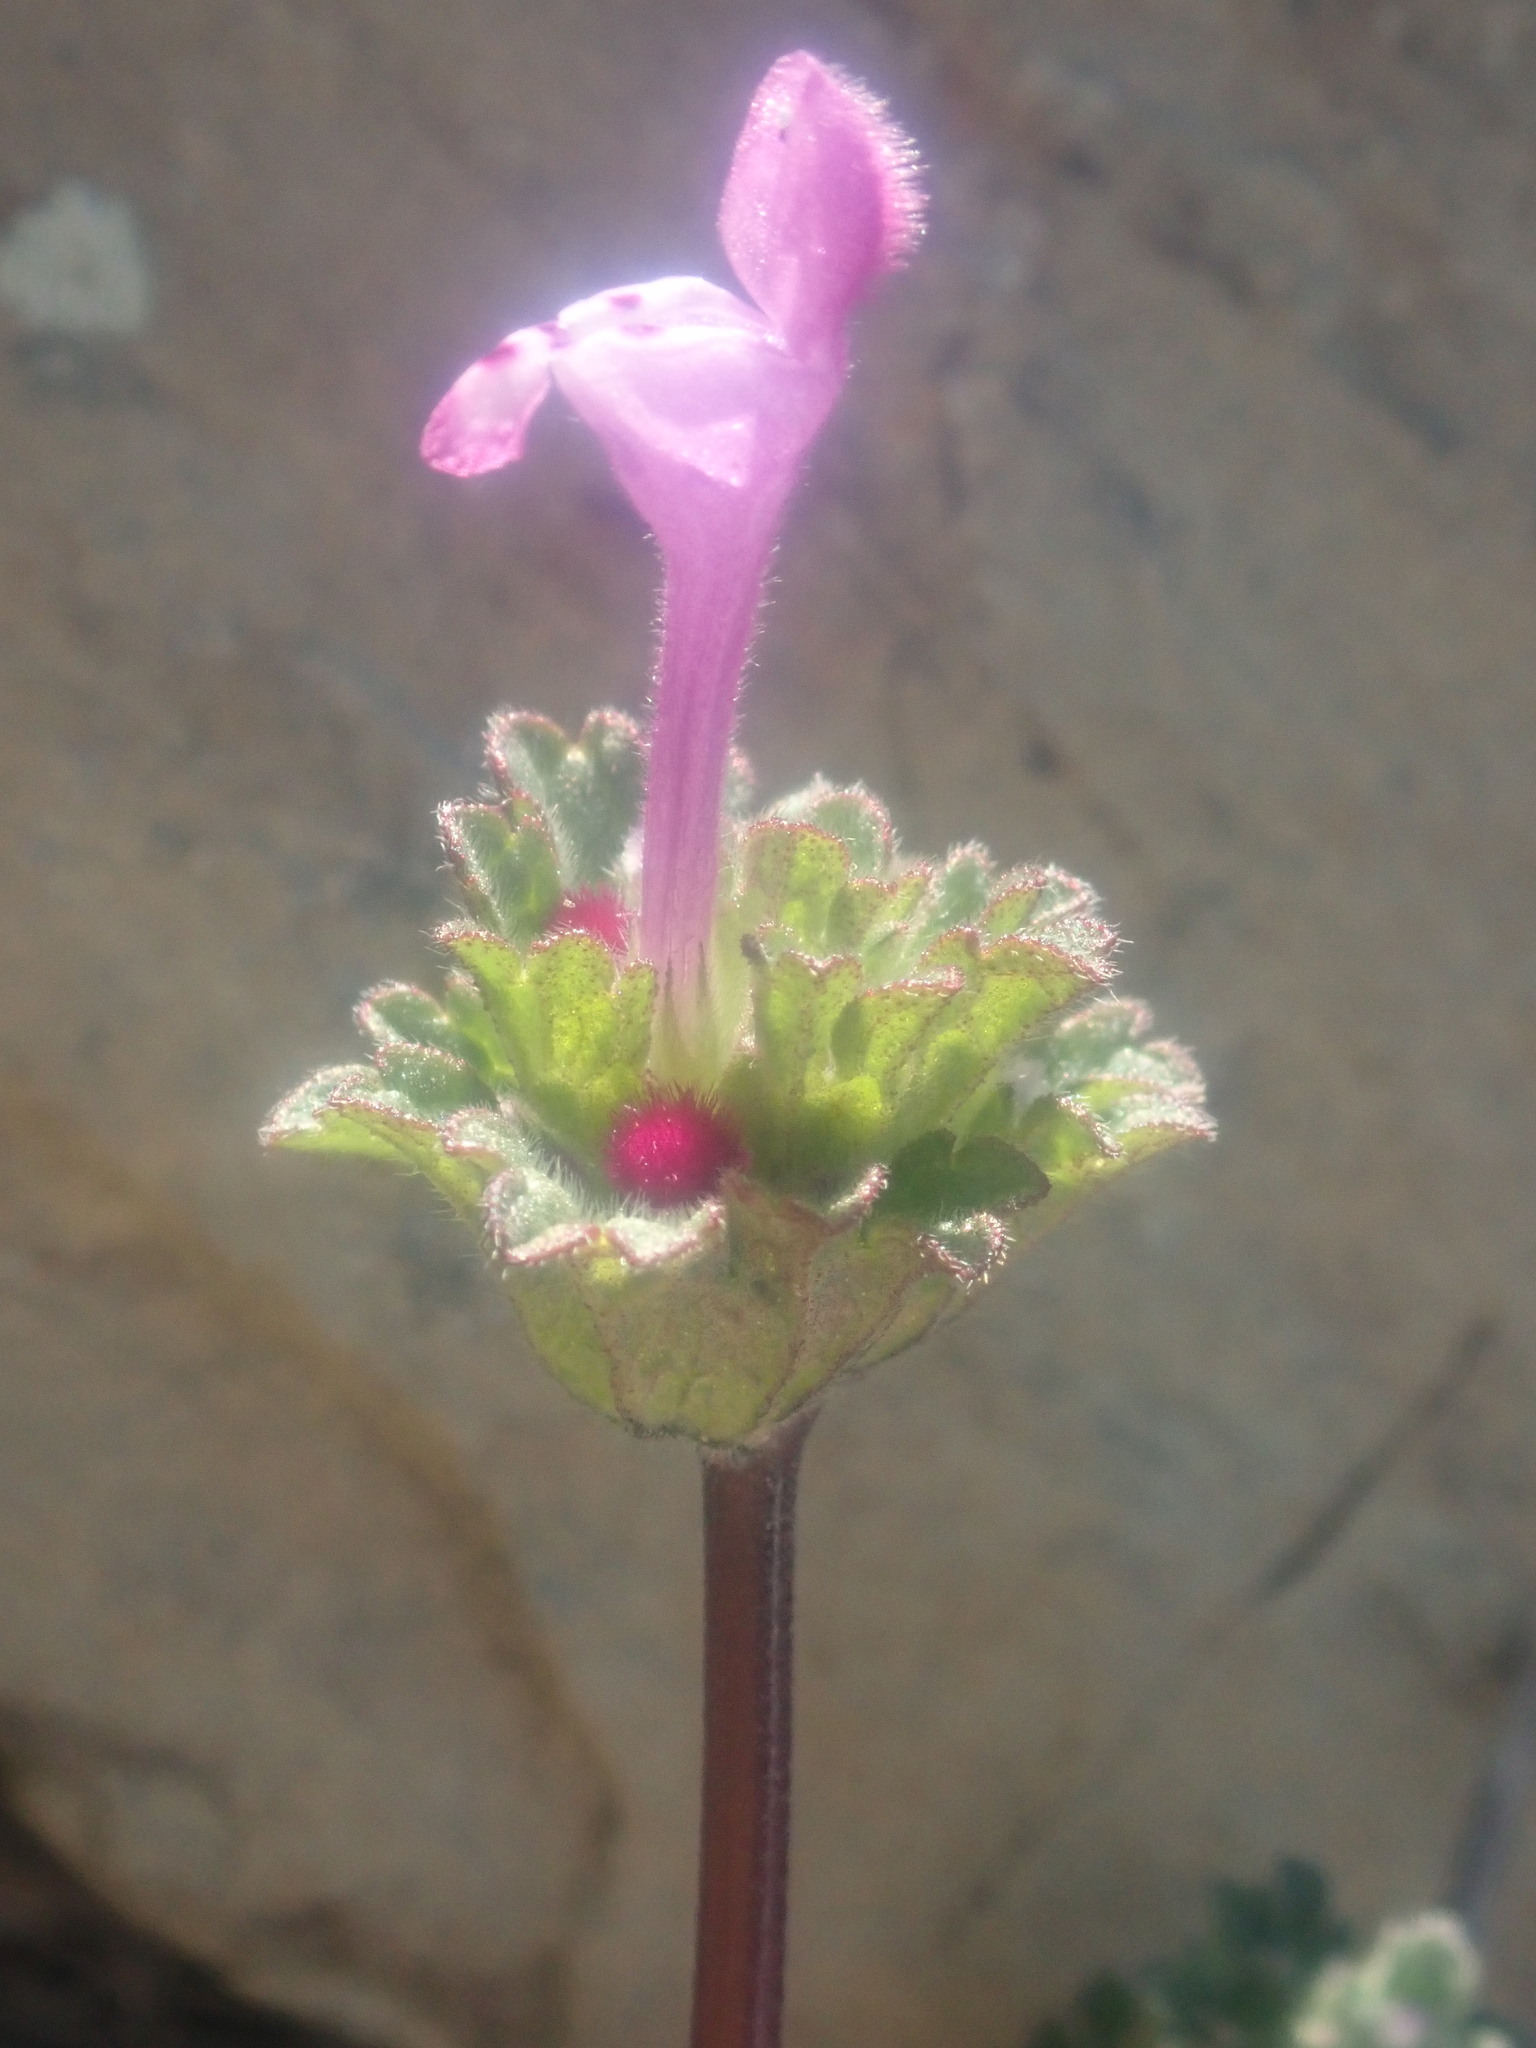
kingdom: Plantae
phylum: Tracheophyta
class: Magnoliopsida
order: Lamiales
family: Lamiaceae
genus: Lamium
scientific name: Lamium amplexicaule
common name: Henbit dead-nettle
